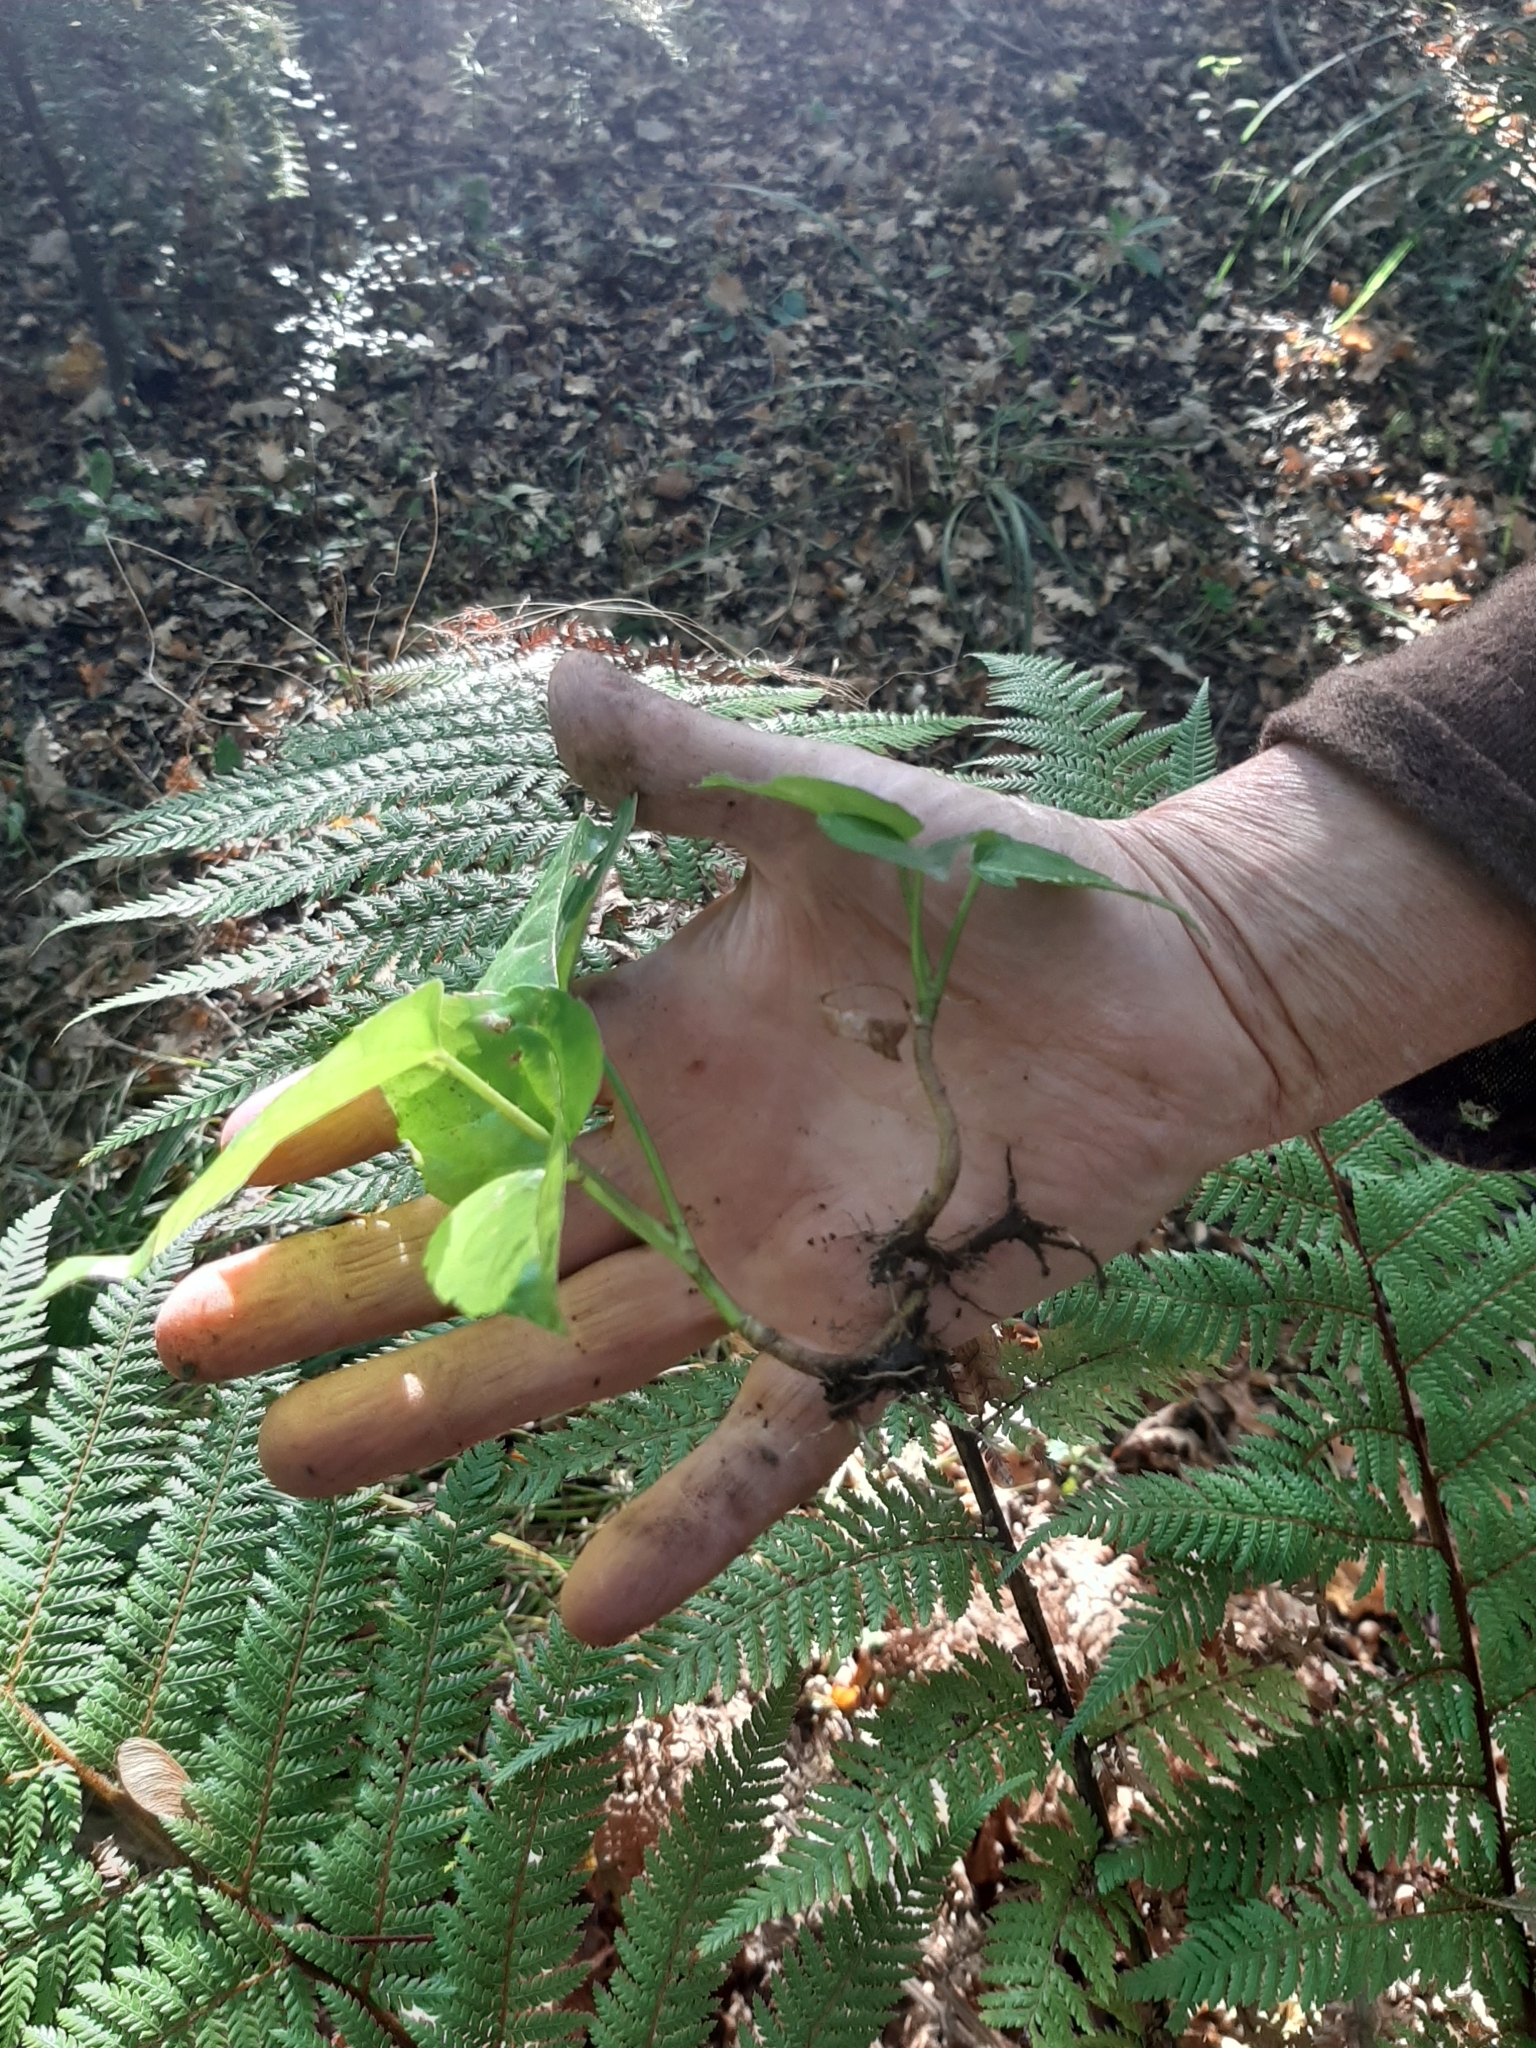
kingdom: Plantae
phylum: Tracheophyta
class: Magnoliopsida
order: Apiales
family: Araliaceae
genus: Fatsia
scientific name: Fatsia japonica
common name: Fatsia
